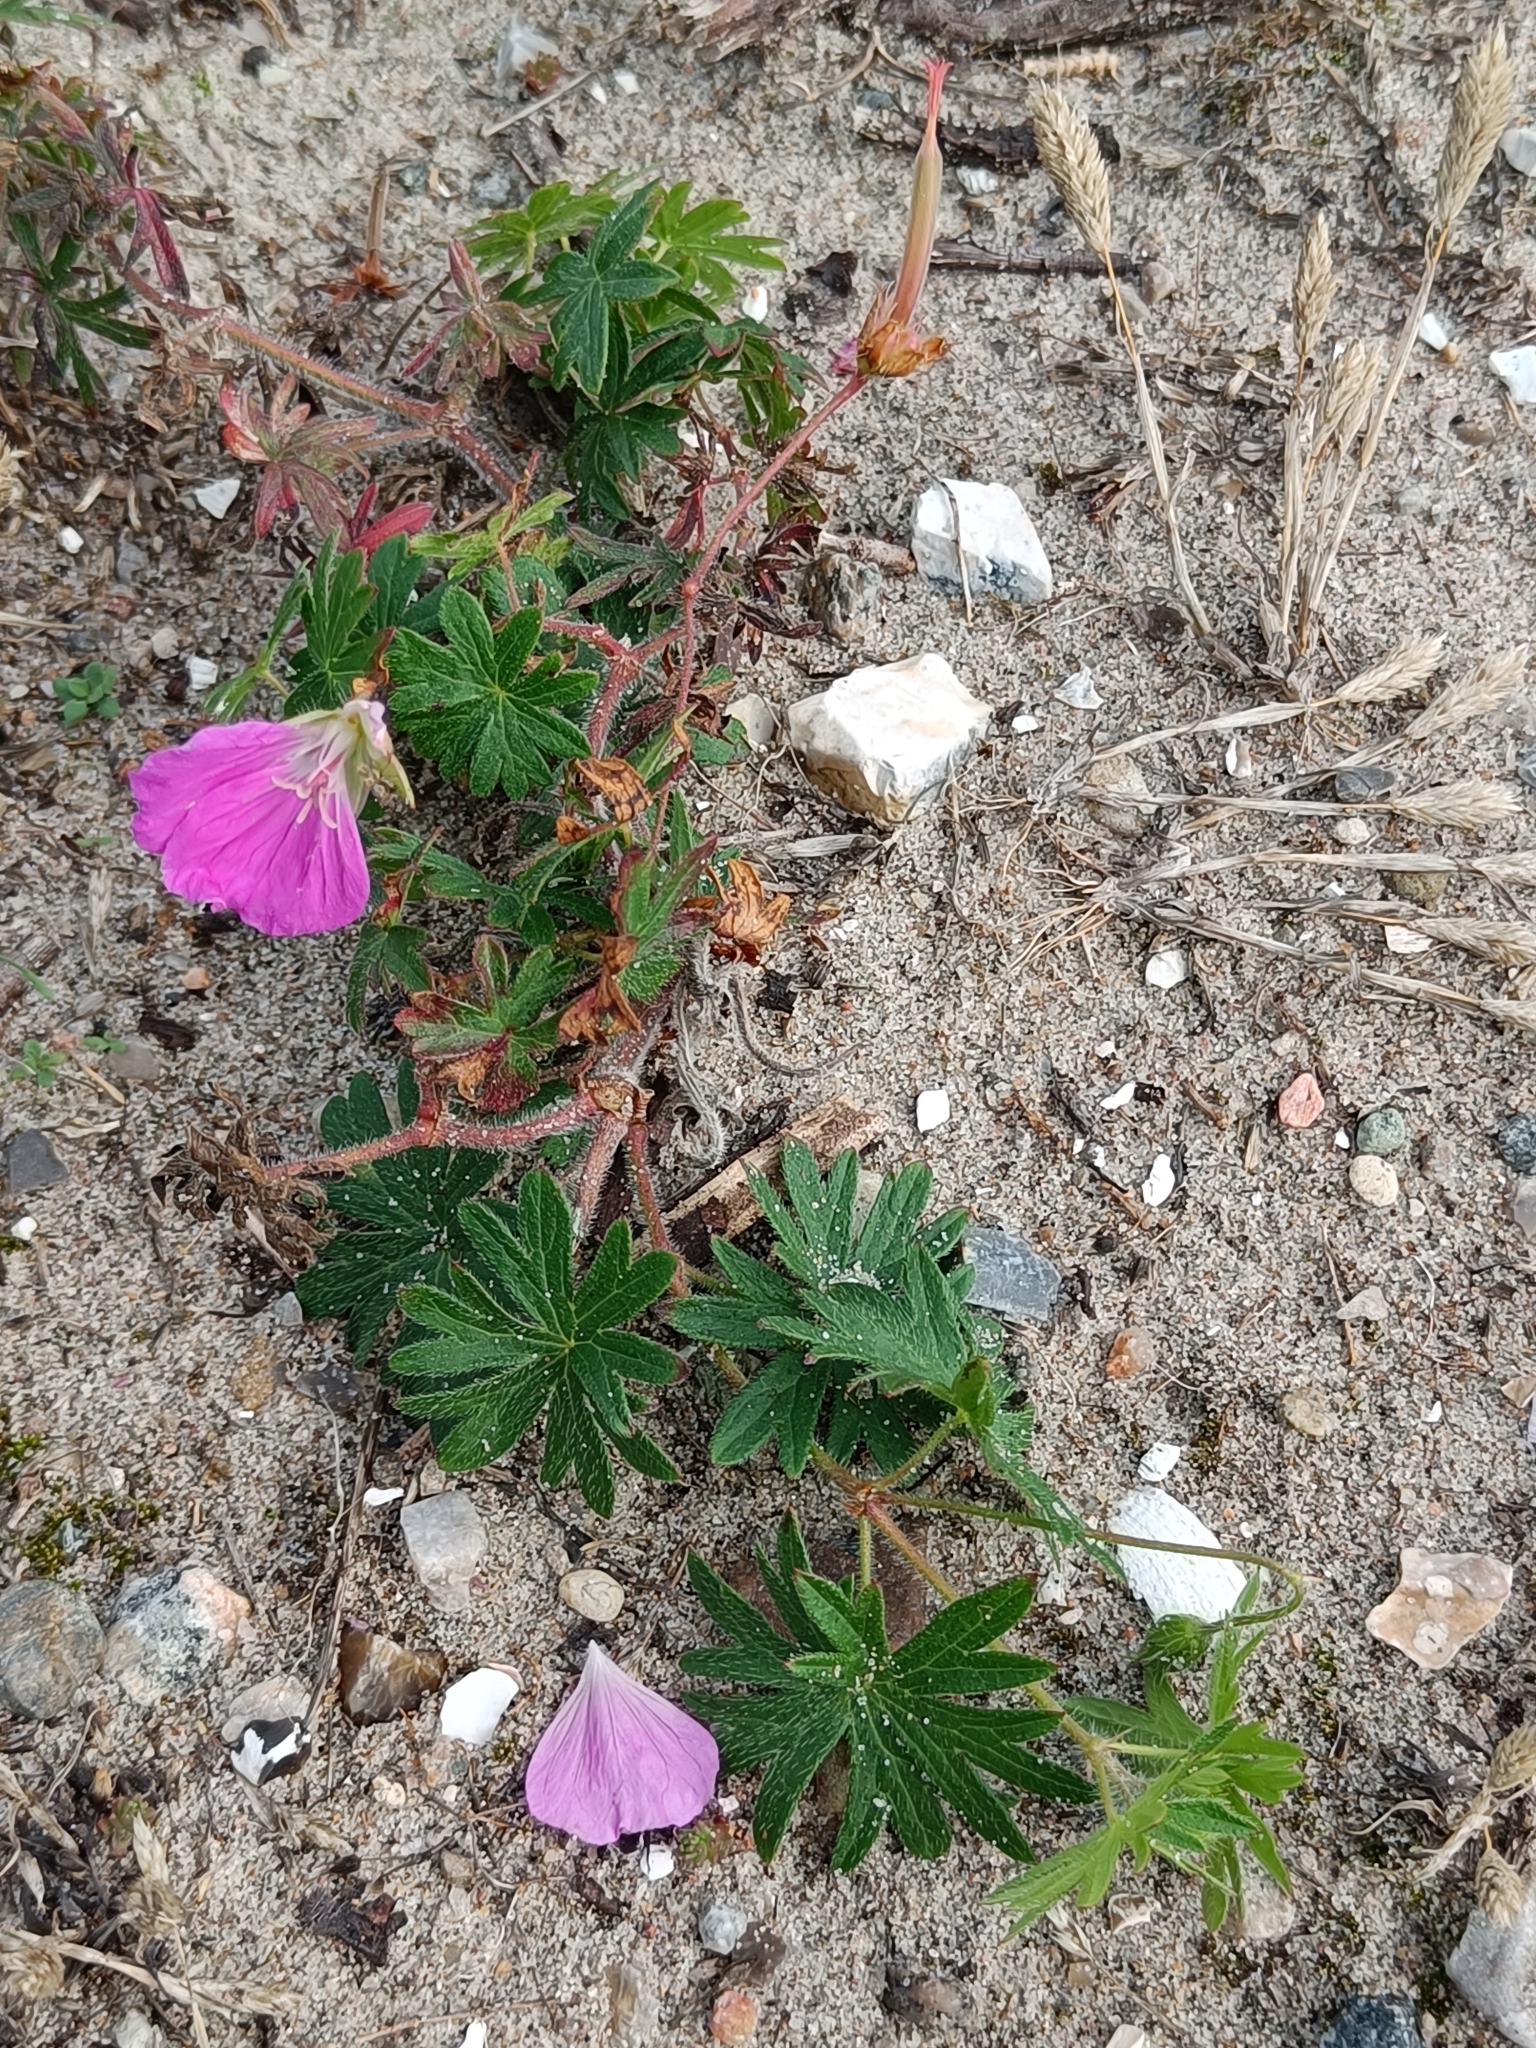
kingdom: Plantae
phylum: Tracheophyta
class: Magnoliopsida
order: Geraniales
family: Geraniaceae
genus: Geranium
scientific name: Geranium sanguineum
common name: Bloody crane's-bill
